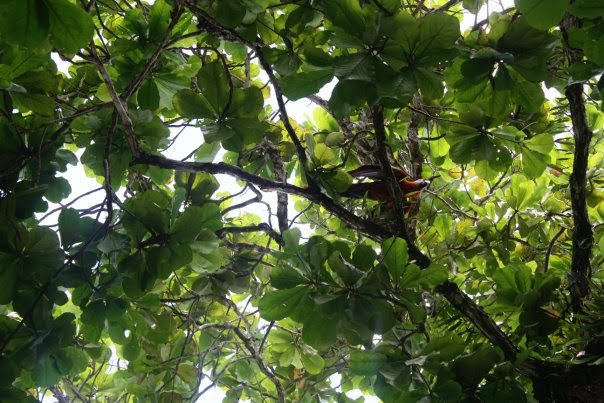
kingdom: Animalia
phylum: Chordata
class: Aves
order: Psittaciformes
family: Psittacidae
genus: Ara
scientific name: Ara macao
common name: Scarlet macaw
